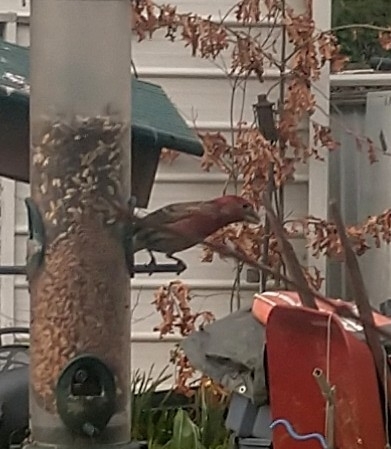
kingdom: Animalia
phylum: Chordata
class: Aves
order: Passeriformes
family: Fringillidae
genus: Haemorhous
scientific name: Haemorhous mexicanus
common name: House finch
